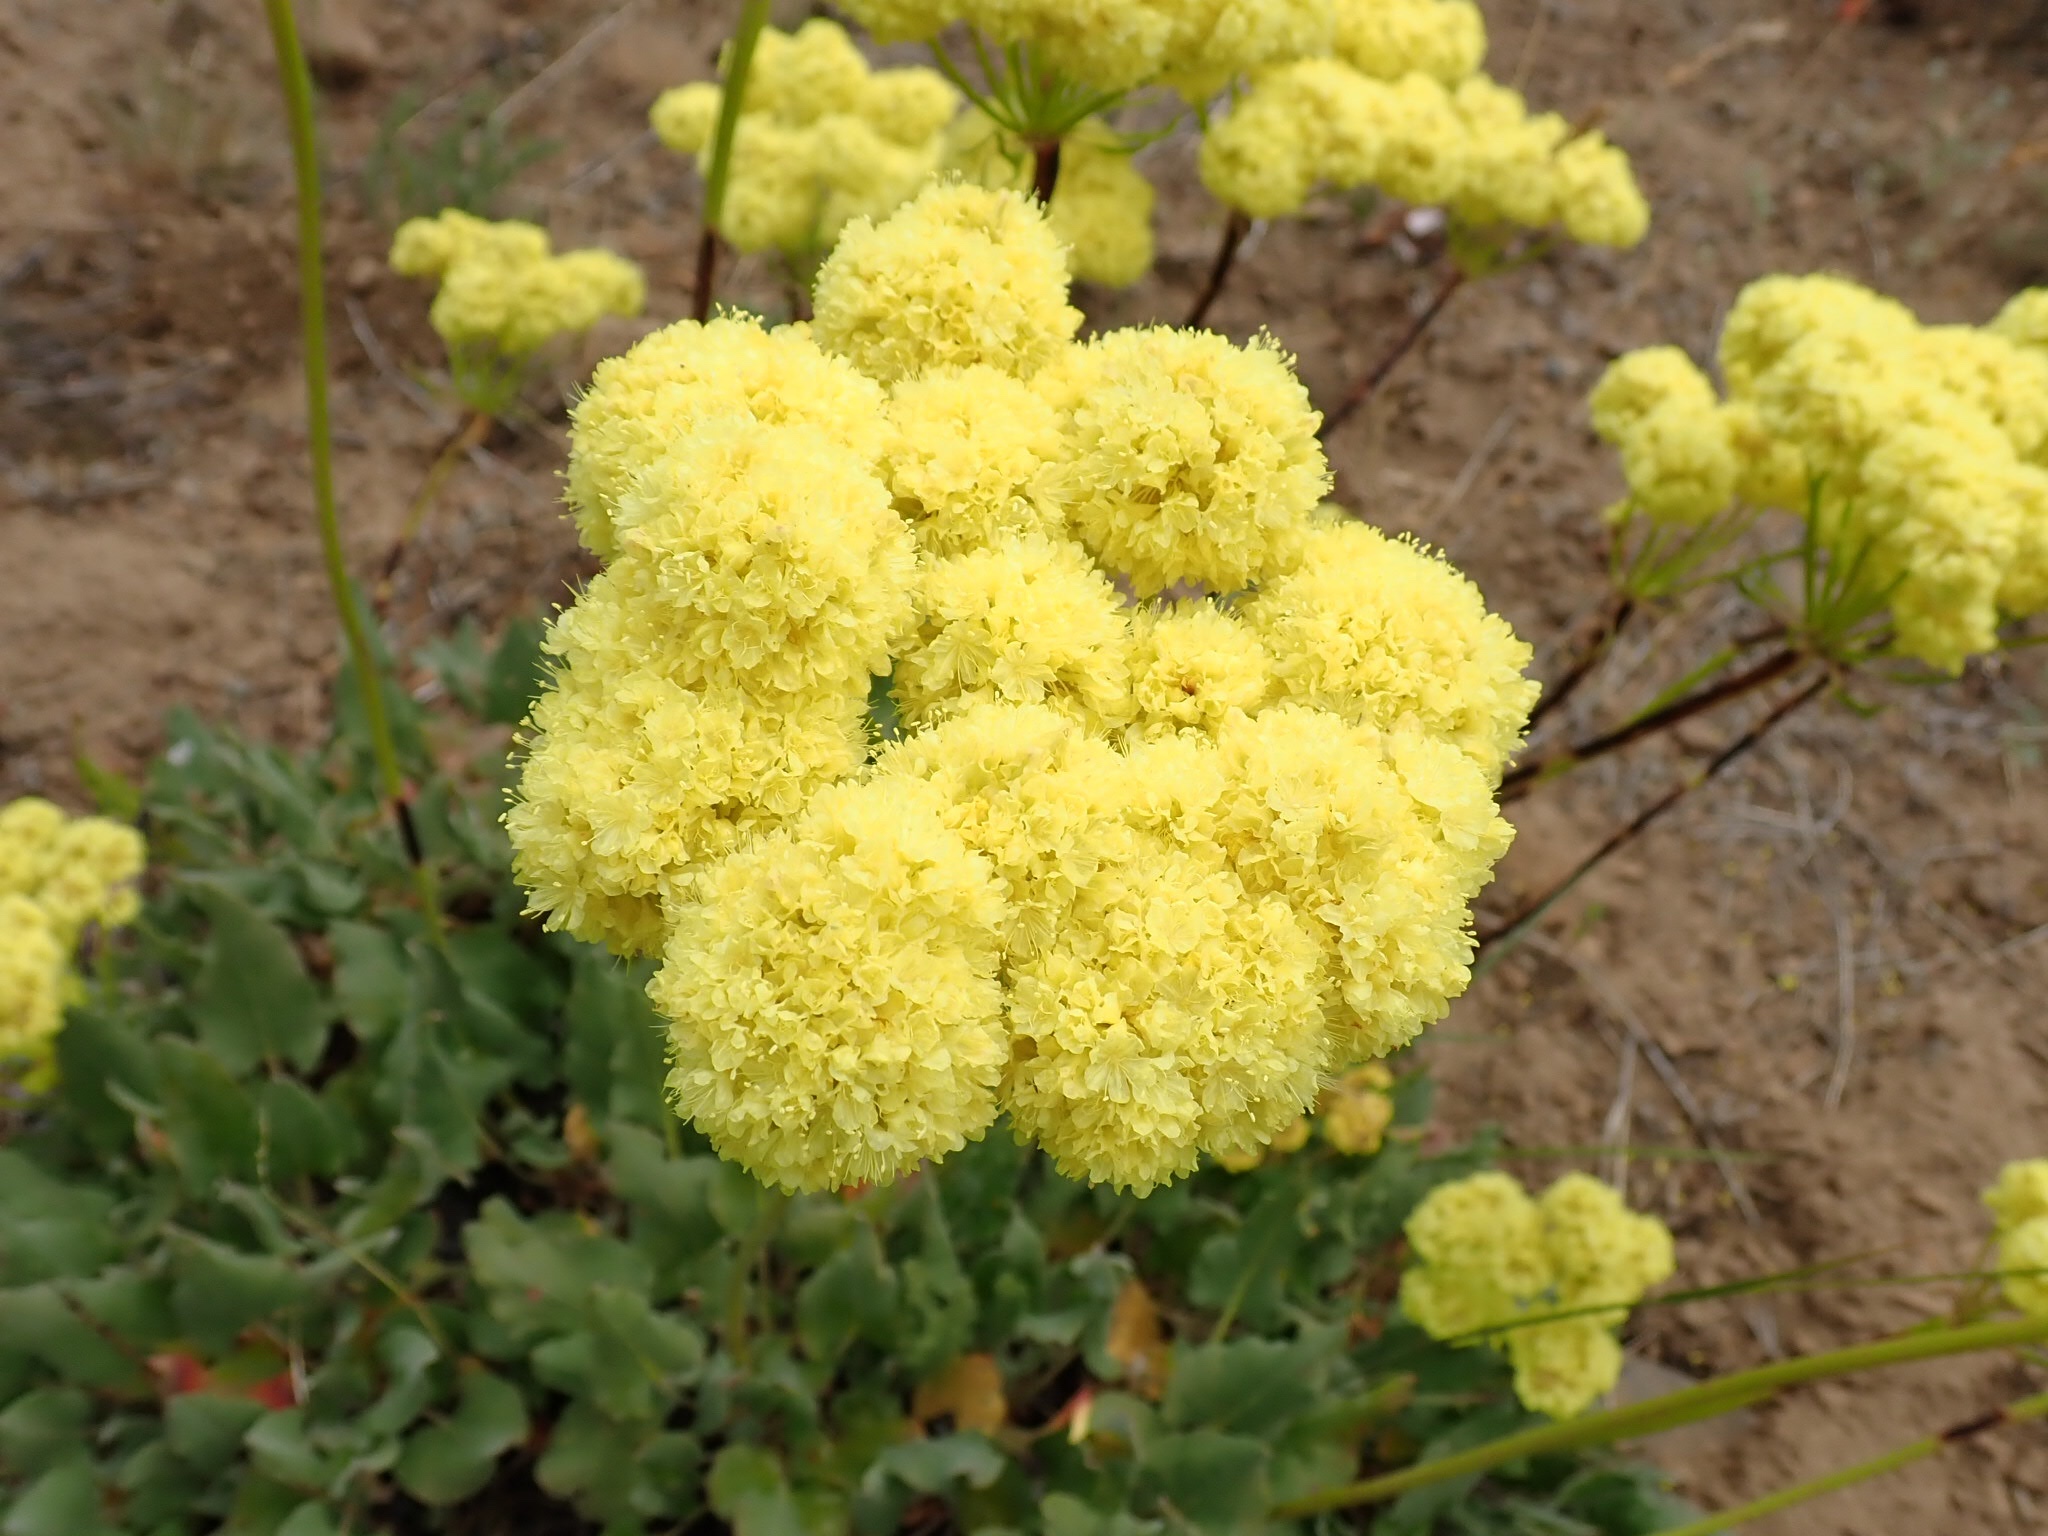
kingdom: Plantae
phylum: Tracheophyta
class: Magnoliopsida
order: Caryophyllales
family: Polygonaceae
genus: Eriogonum
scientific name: Eriogonum compositum
